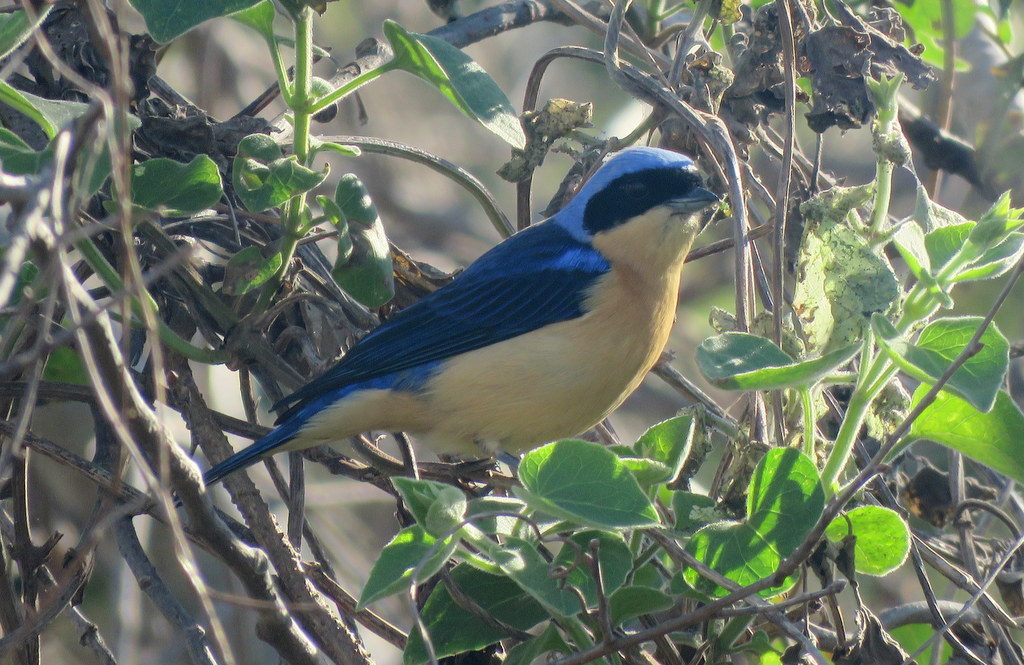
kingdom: Animalia
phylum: Chordata
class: Aves
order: Passeriformes
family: Thraupidae
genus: Pipraeidea
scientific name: Pipraeidea melanonota
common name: Fawn-breasted tanager
